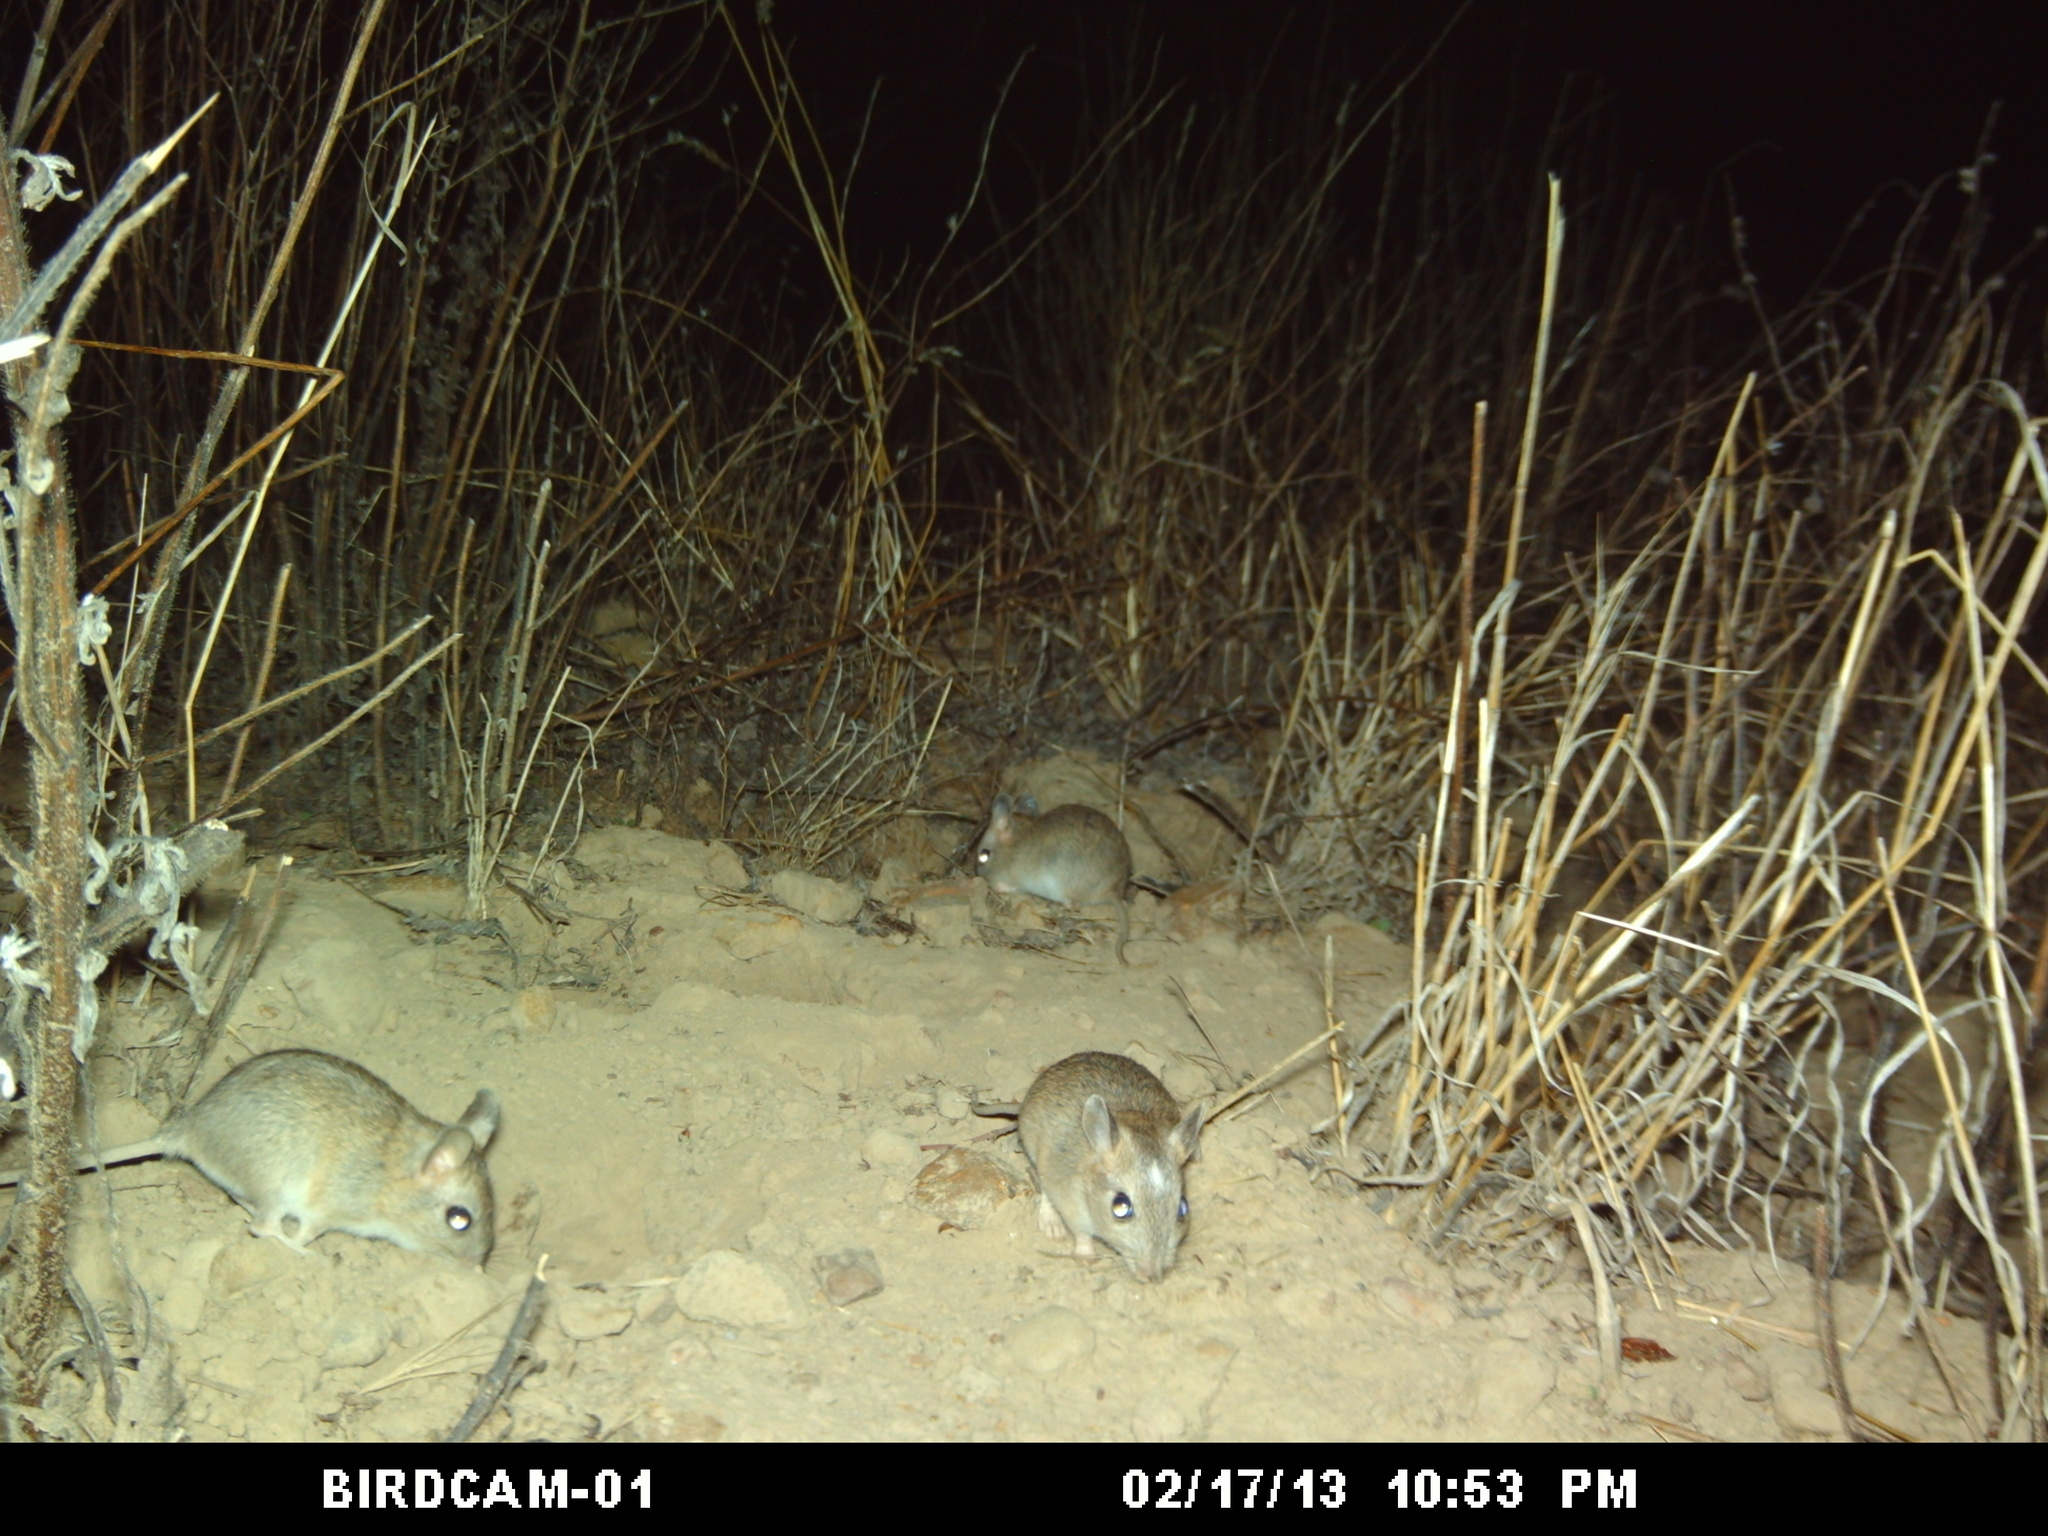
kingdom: Animalia
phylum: Chordata
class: Mammalia
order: Rodentia
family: Muridae
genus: Gerbilliscus
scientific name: Gerbilliscus afer
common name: Cape gerbil
